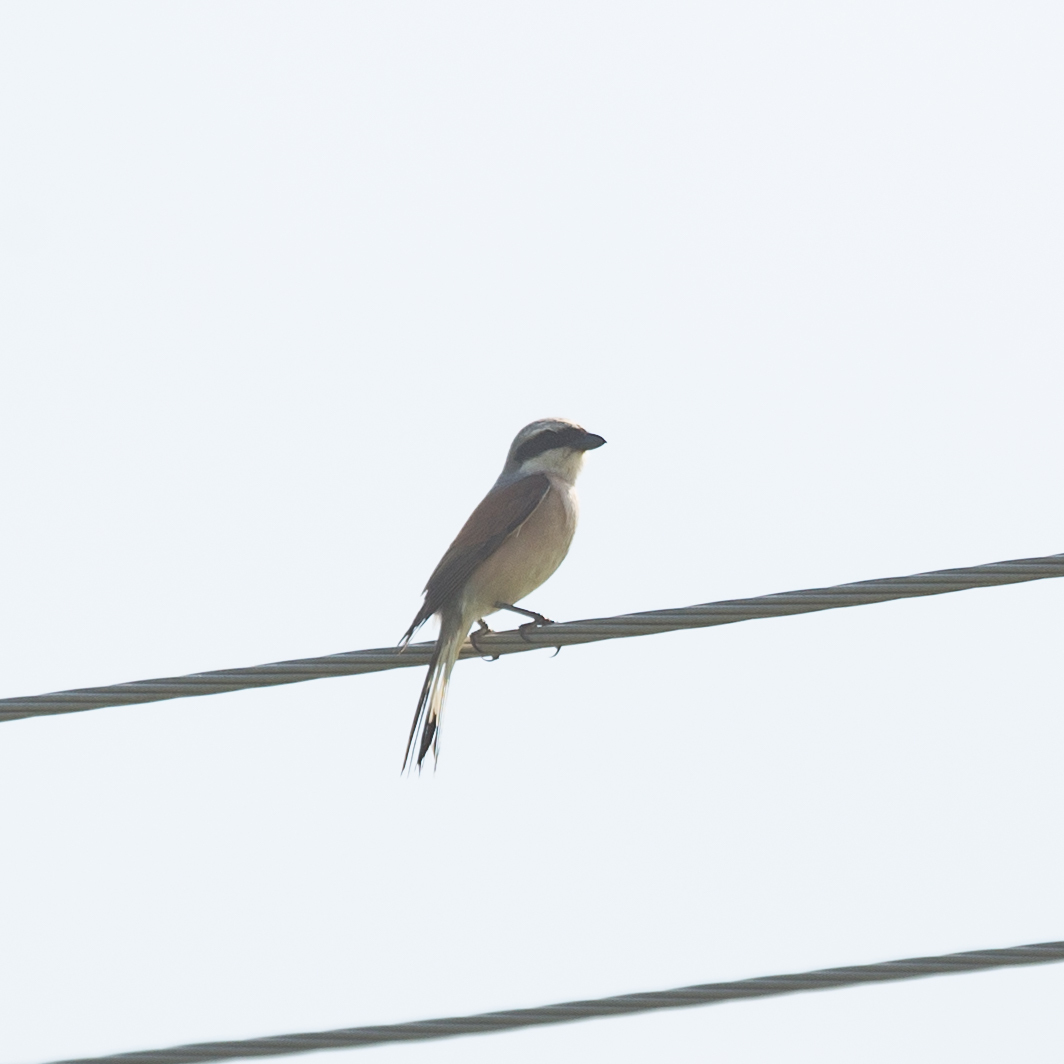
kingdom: Animalia
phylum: Chordata
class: Aves
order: Passeriformes
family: Laniidae
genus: Lanius
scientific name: Lanius collurio
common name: Red-backed shrike
